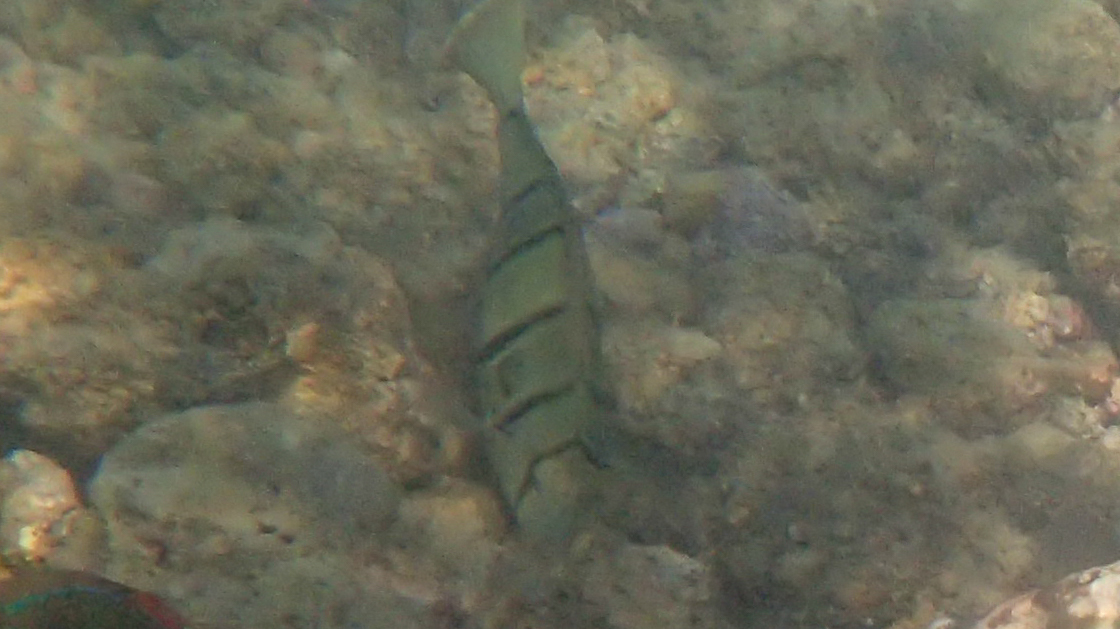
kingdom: Animalia
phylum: Chordata
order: Perciformes
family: Acanthuridae
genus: Acanthurus
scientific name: Acanthurus triostegus
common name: Convict surgeonfish
